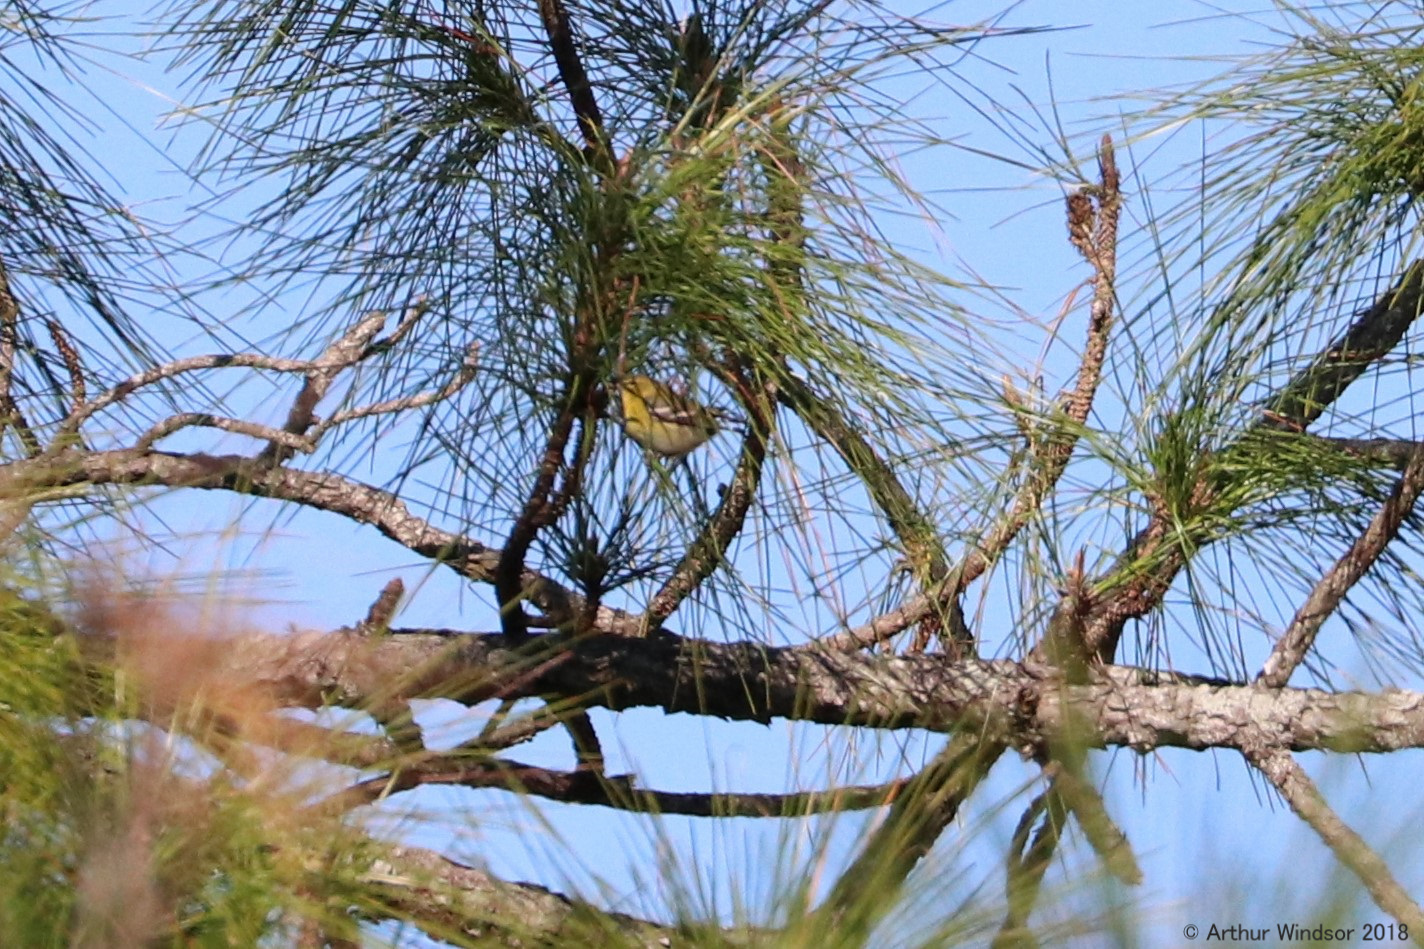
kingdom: Animalia
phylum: Chordata
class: Aves
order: Passeriformes
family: Parulidae
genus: Setophaga
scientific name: Setophaga pinus
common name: Pine warbler
